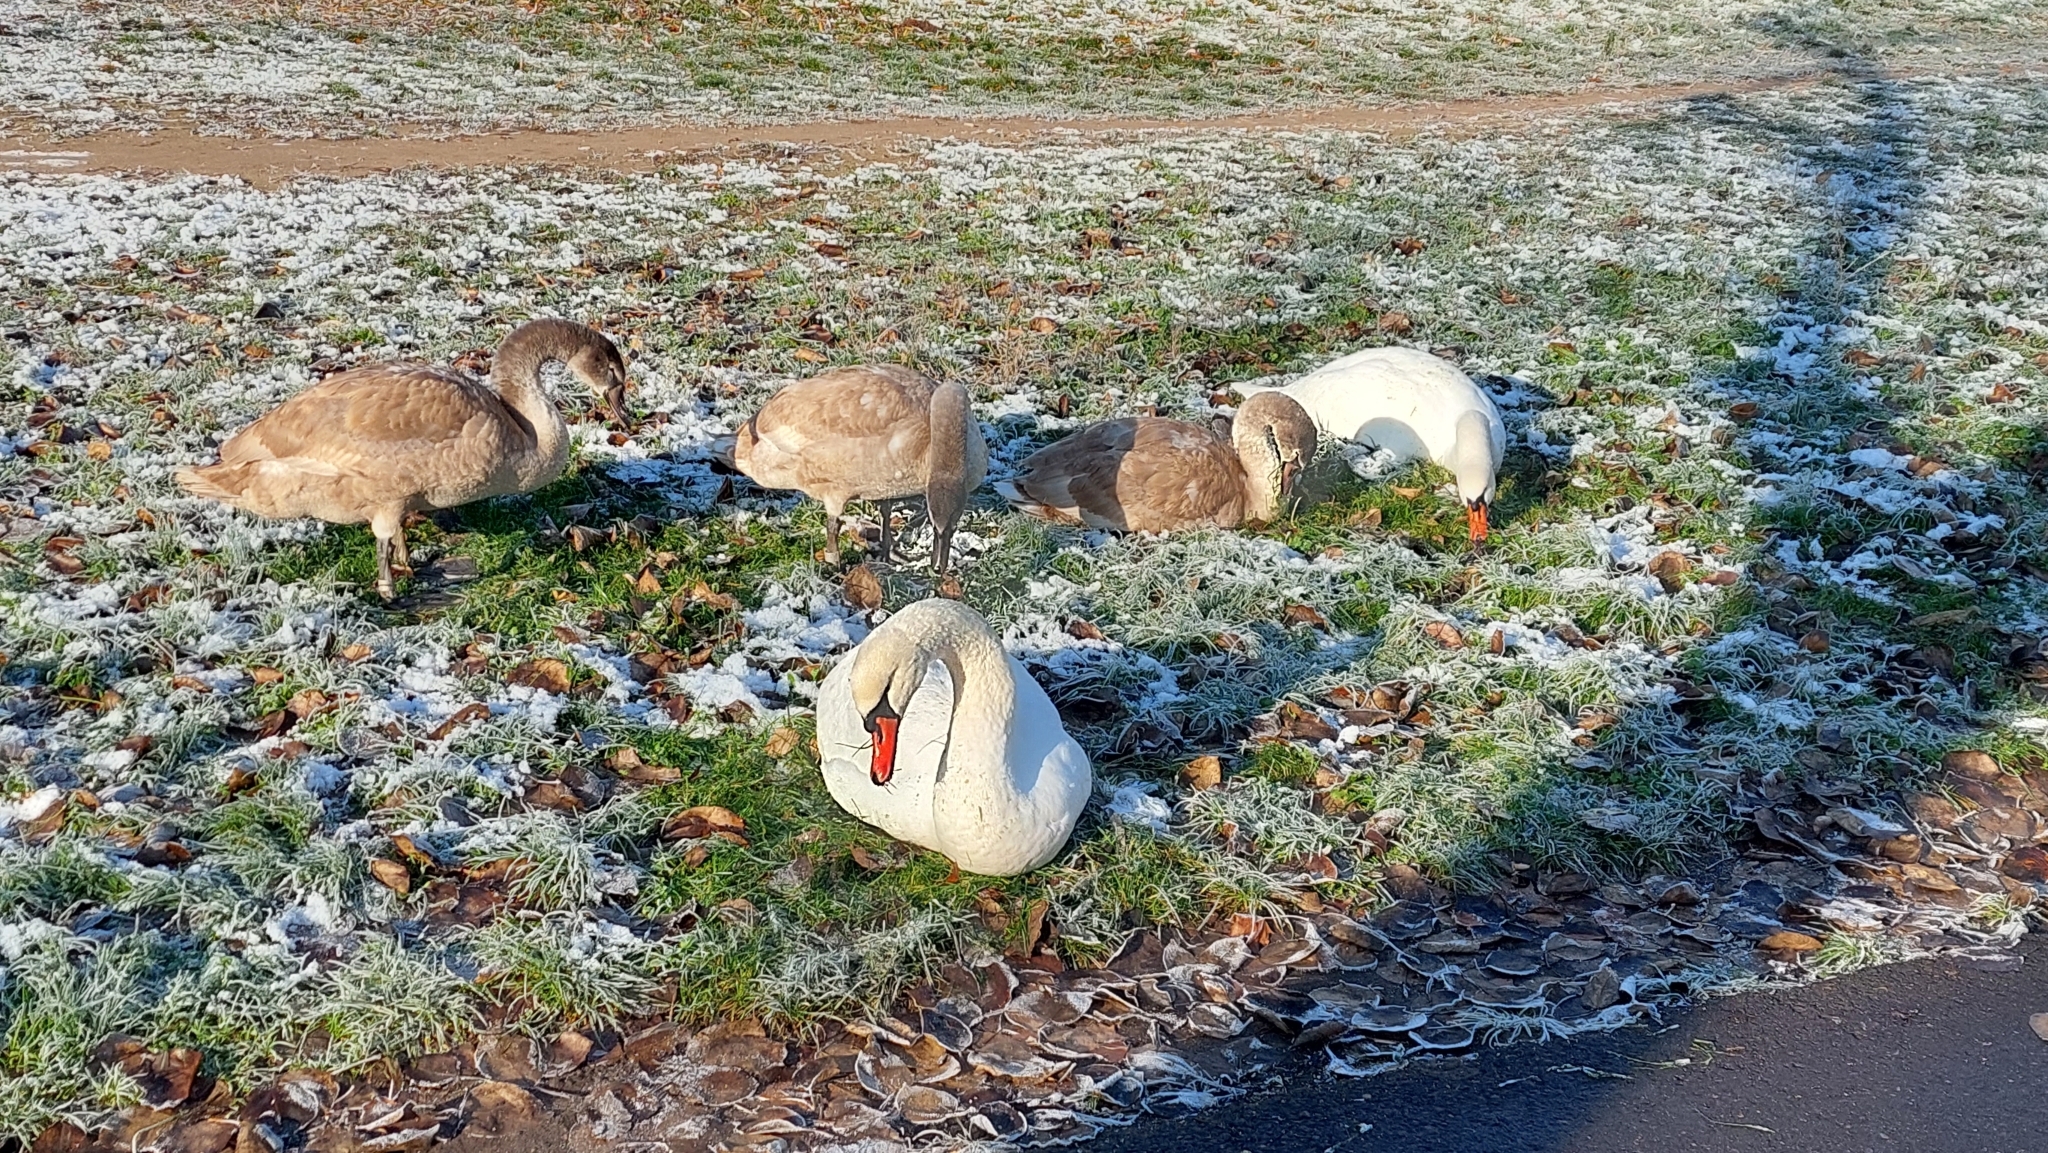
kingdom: Animalia
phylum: Chordata
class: Aves
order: Anseriformes
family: Anatidae
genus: Cygnus
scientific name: Cygnus olor
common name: Mute swan
